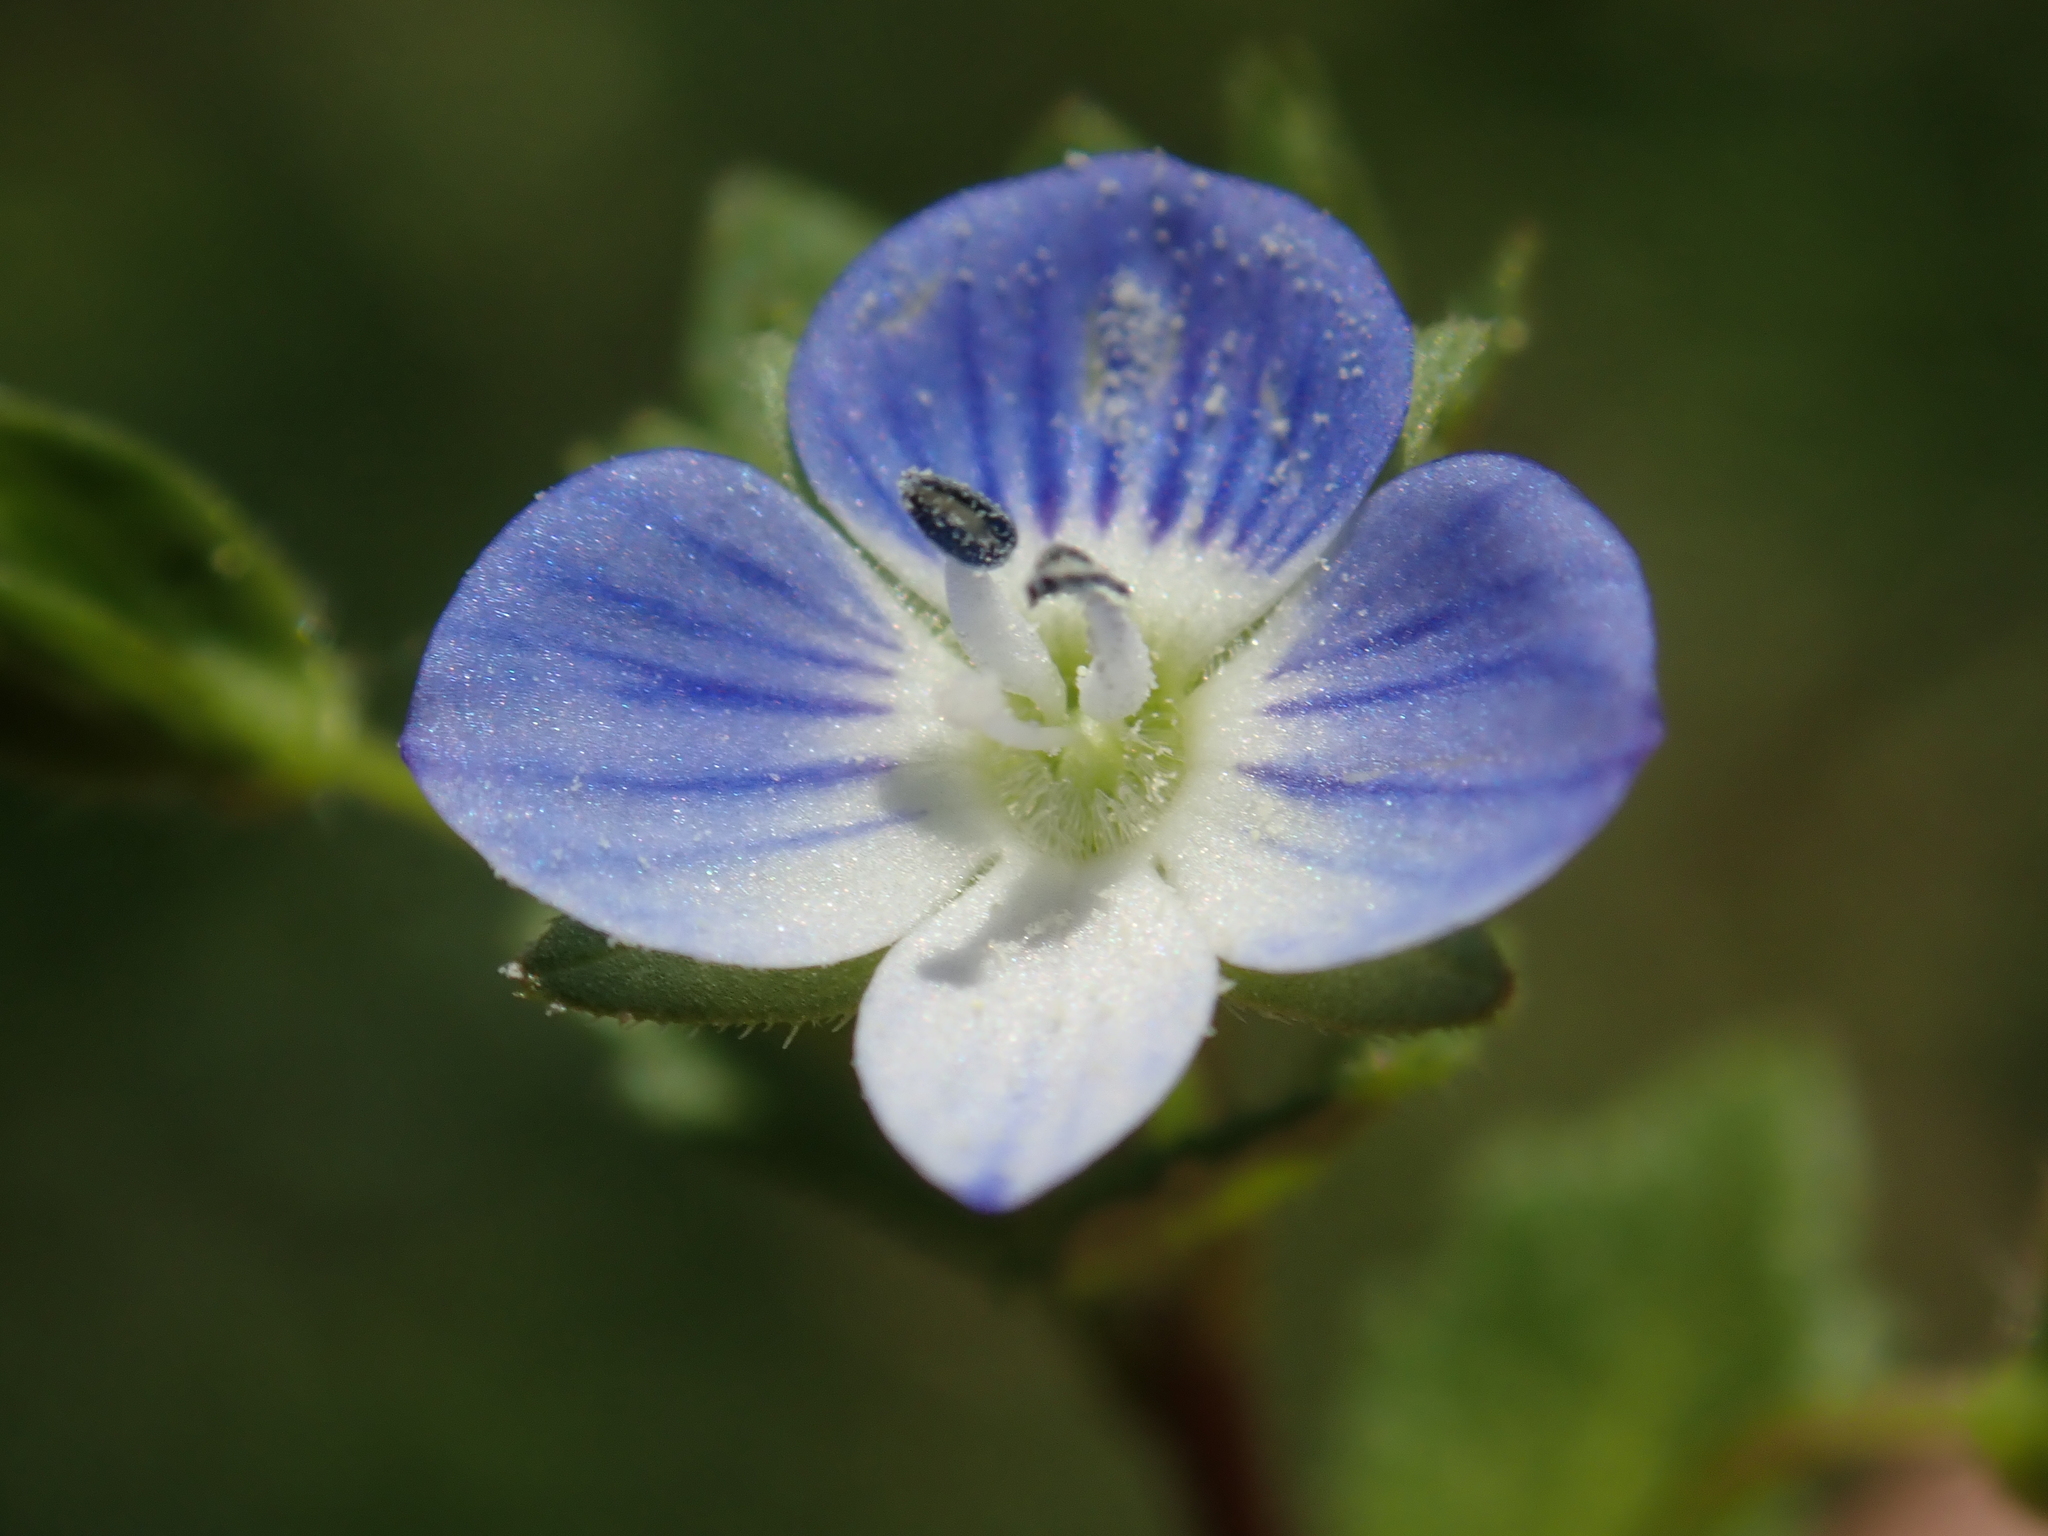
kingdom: Plantae
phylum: Tracheophyta
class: Magnoliopsida
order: Lamiales
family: Plantaginaceae
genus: Veronica
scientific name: Veronica persica
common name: Common field-speedwell
